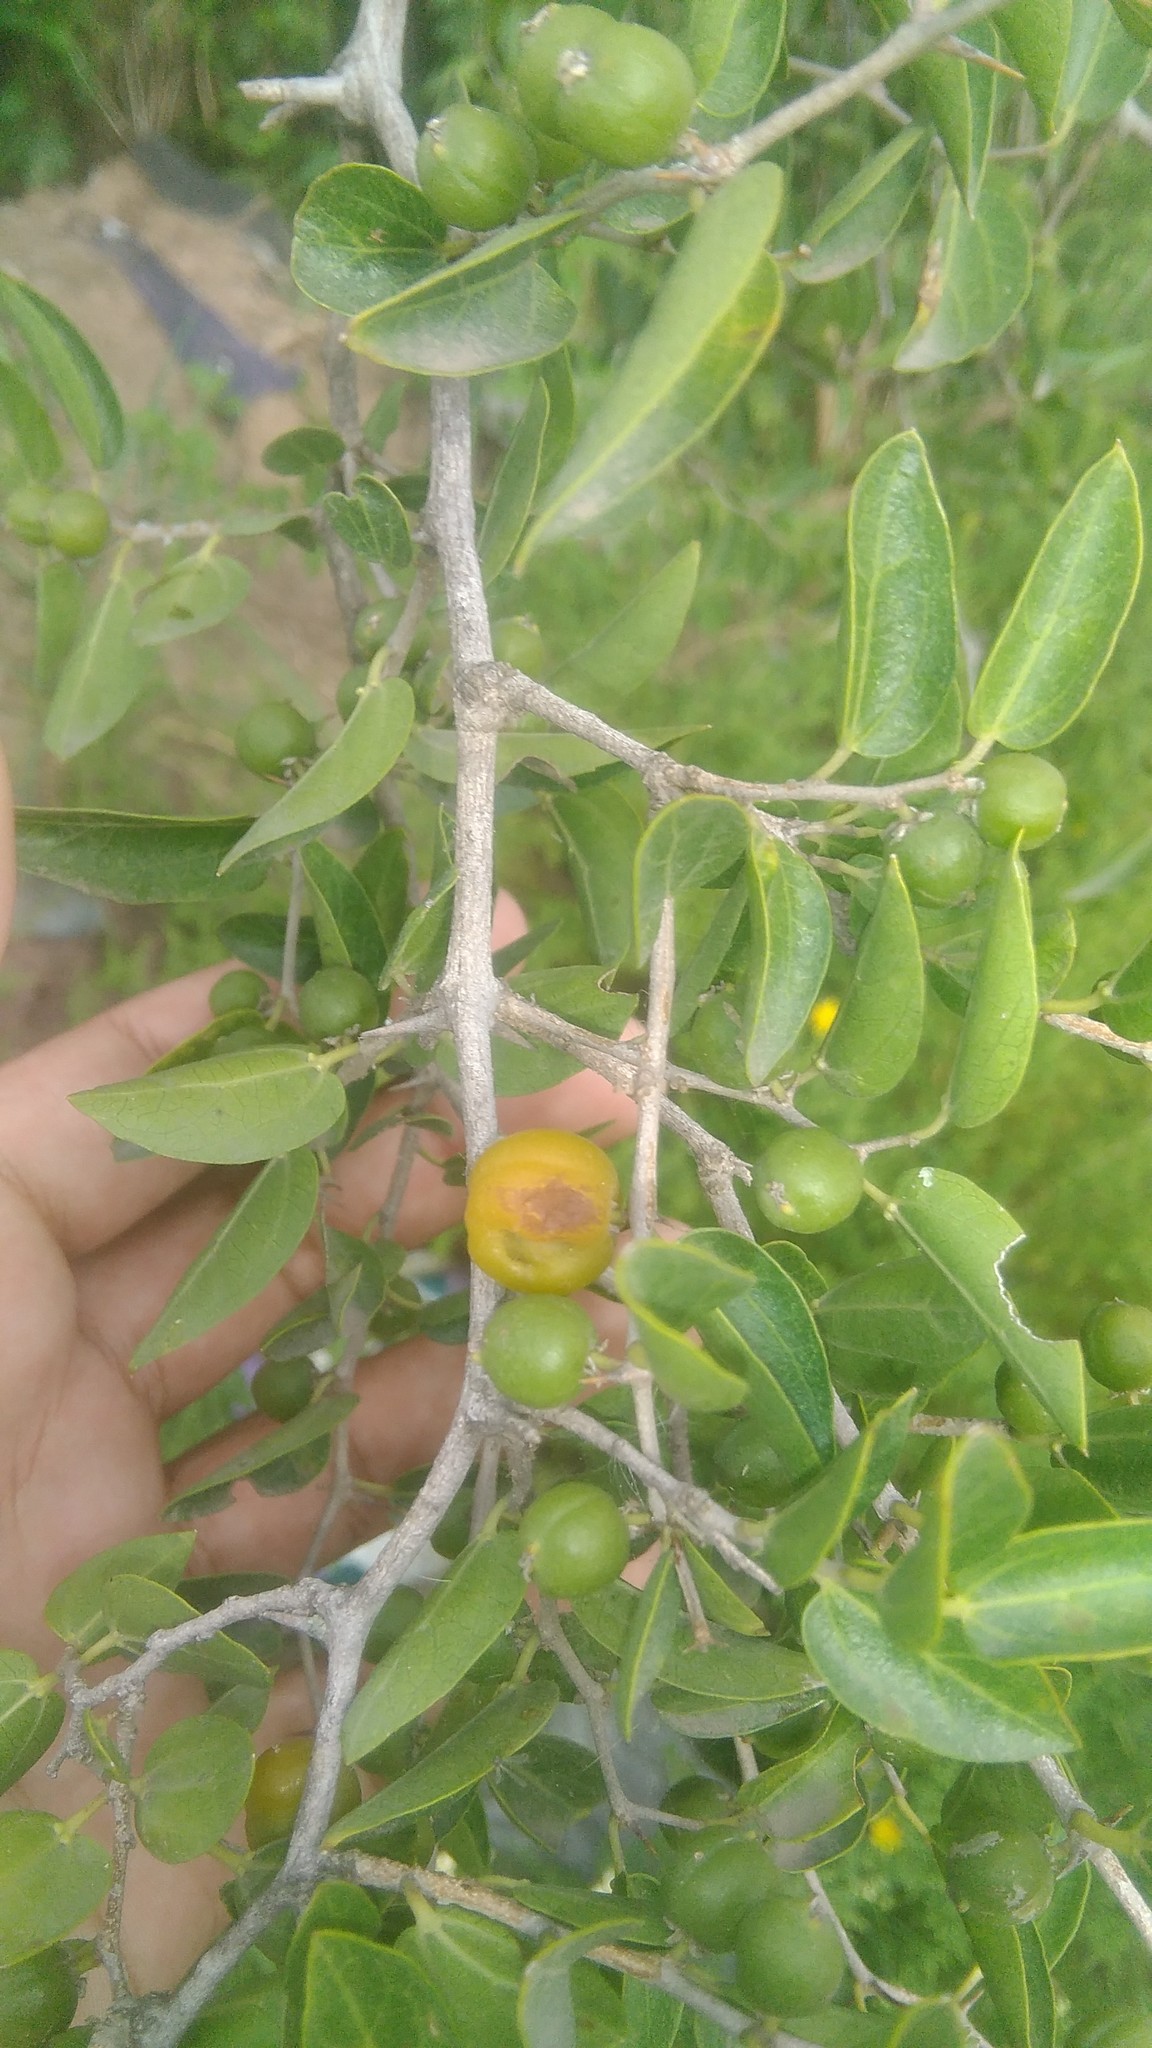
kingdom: Plantae
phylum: Tracheophyta
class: Magnoliopsida
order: Rosales
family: Cannabaceae
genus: Celtis
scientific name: Celtis tala
